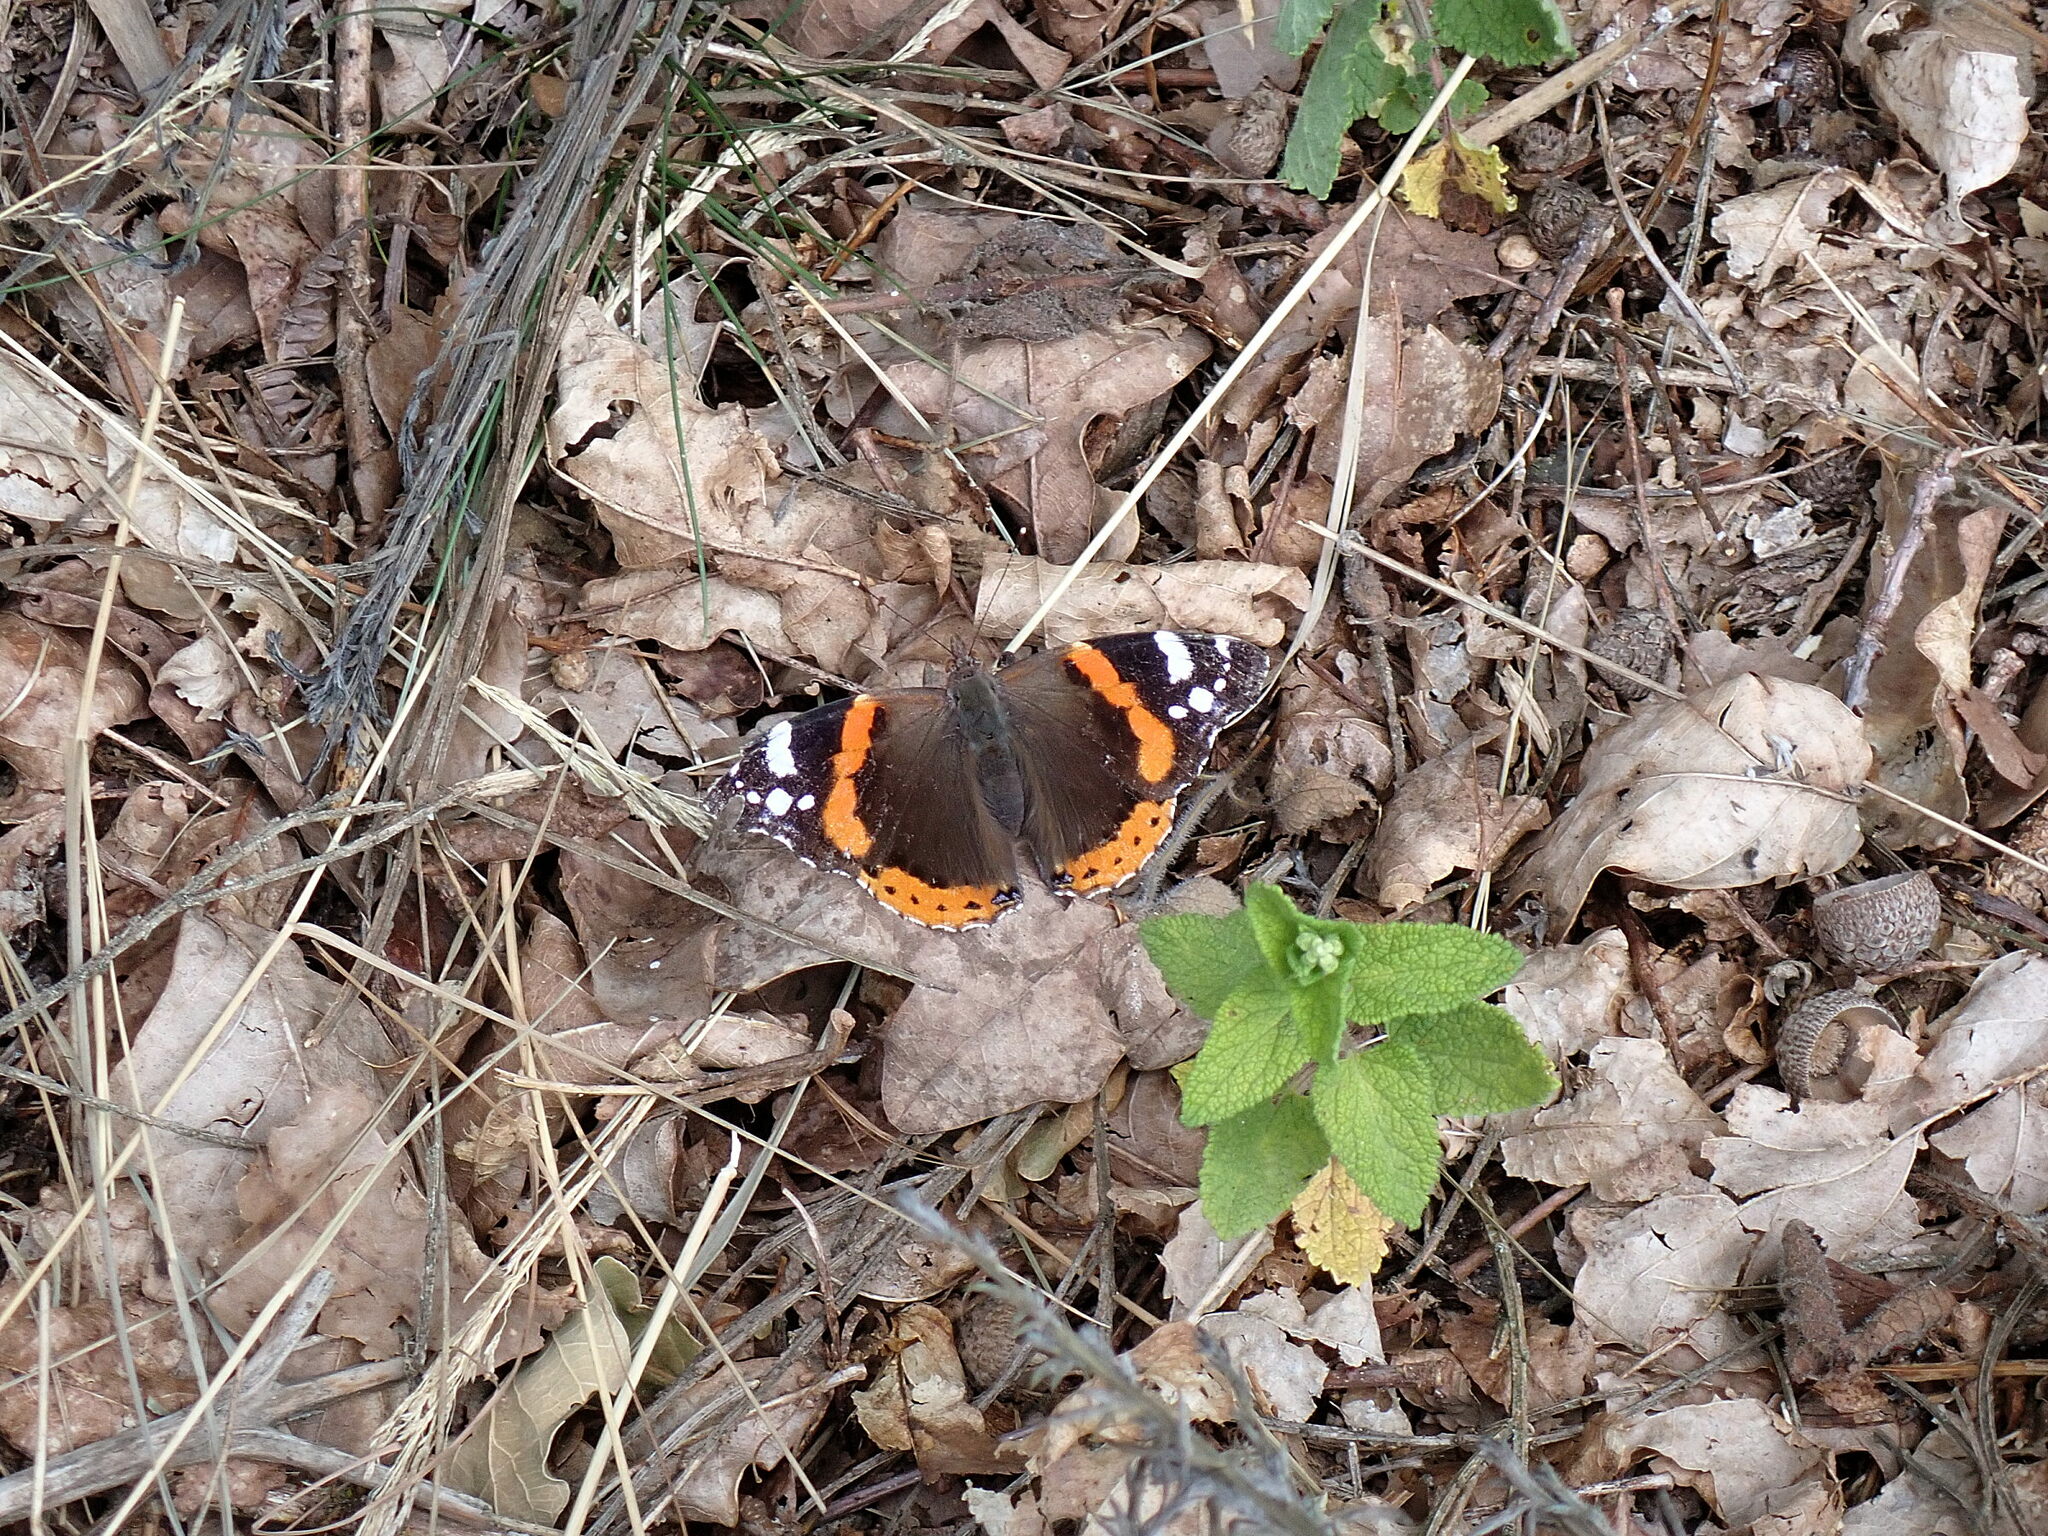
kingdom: Animalia
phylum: Arthropoda
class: Insecta
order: Lepidoptera
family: Nymphalidae
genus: Vanessa
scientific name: Vanessa atalanta
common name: Red admiral
